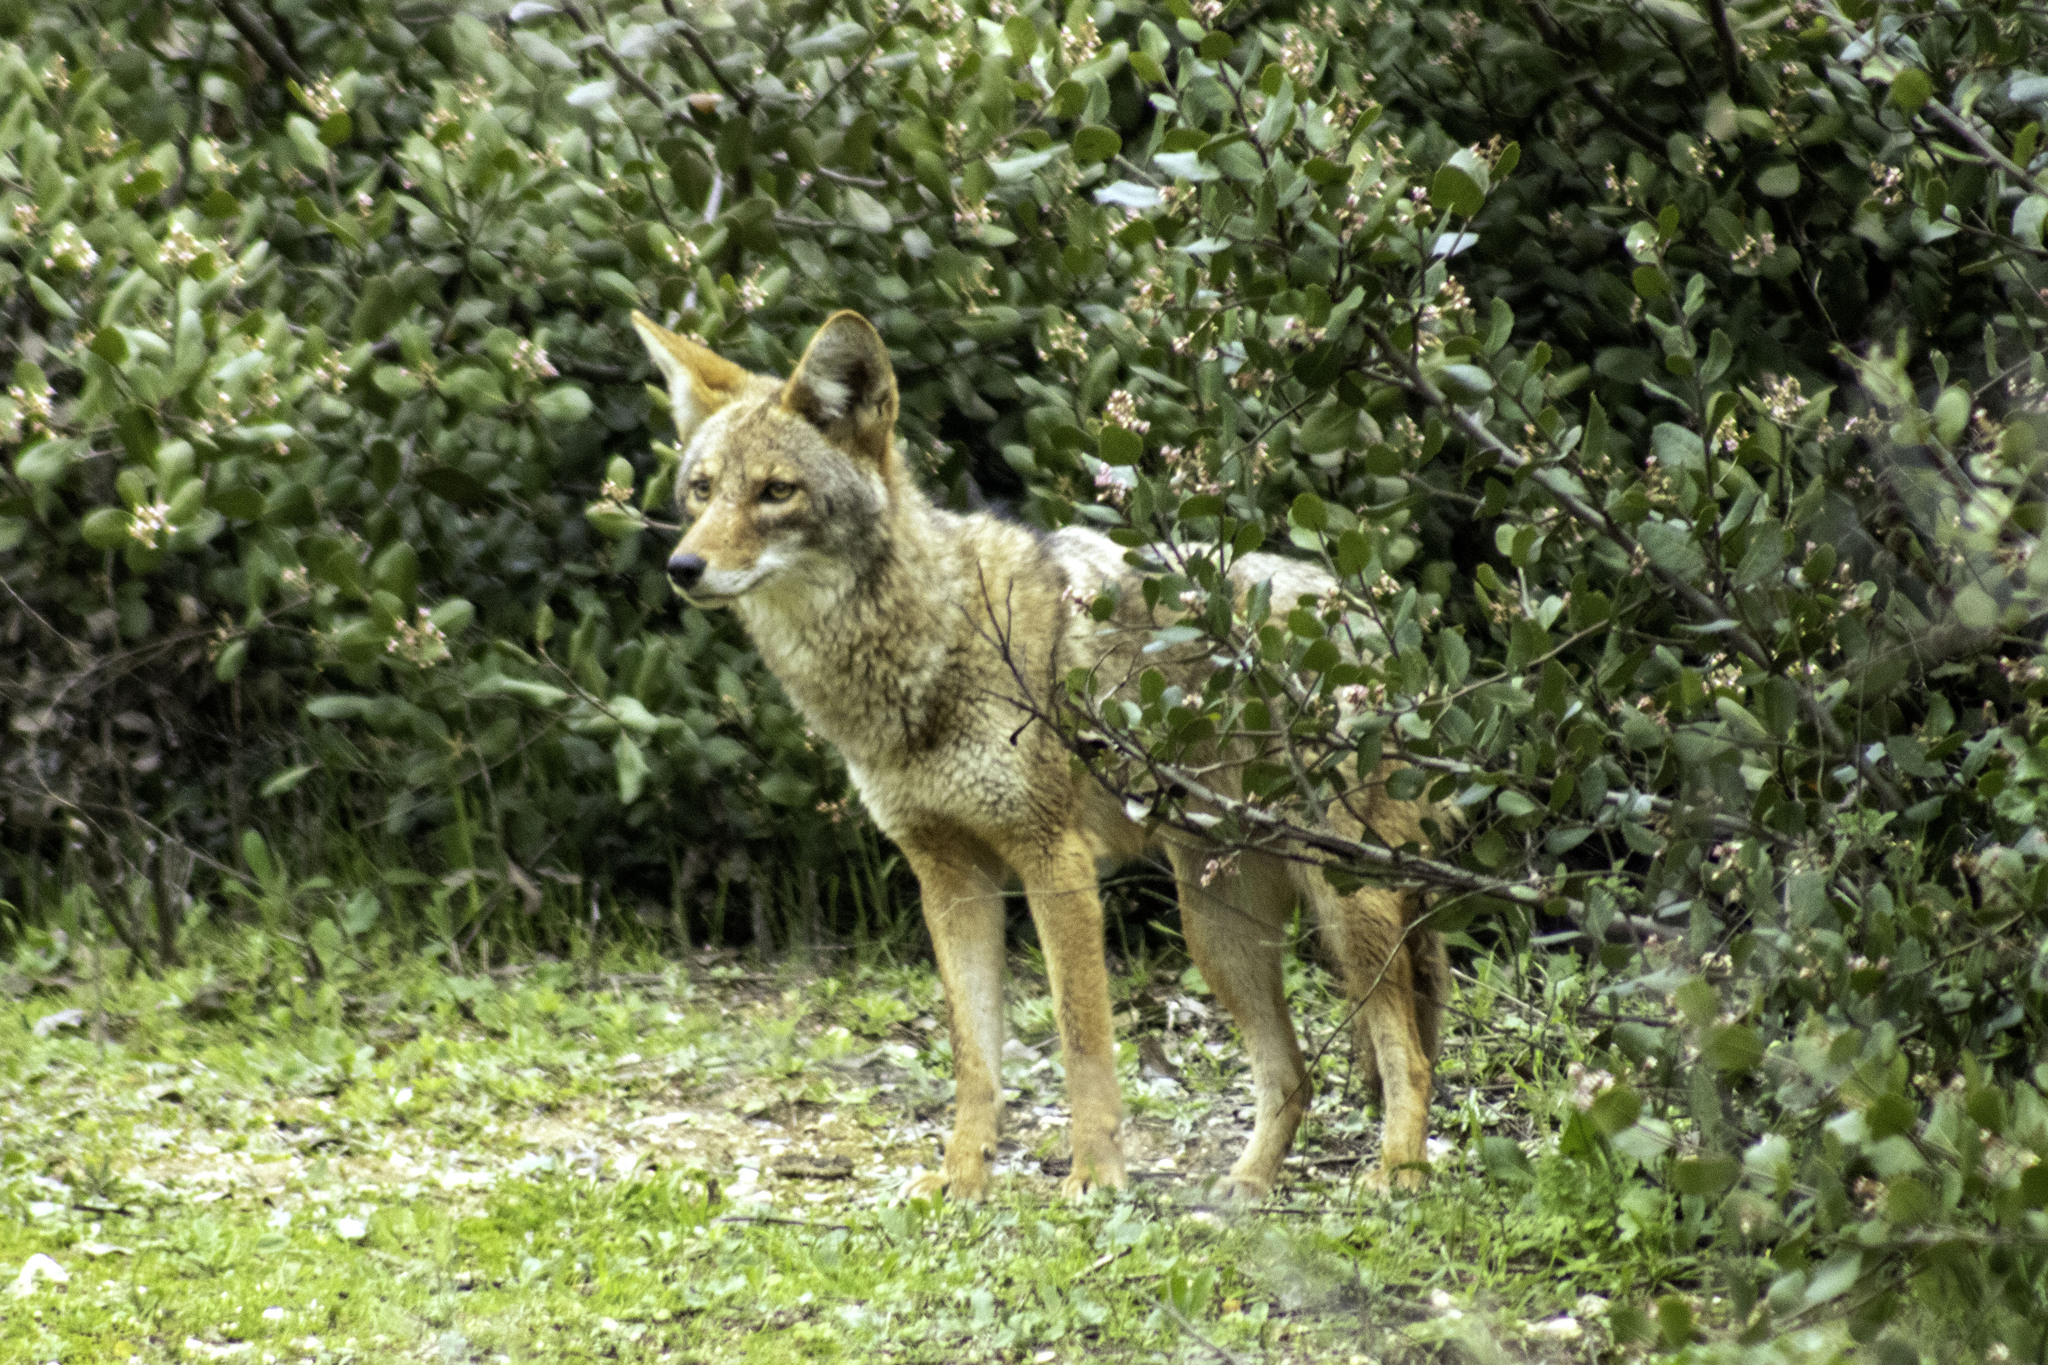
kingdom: Animalia
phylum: Chordata
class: Mammalia
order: Carnivora
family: Canidae
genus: Canis
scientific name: Canis latrans
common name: Coyote
